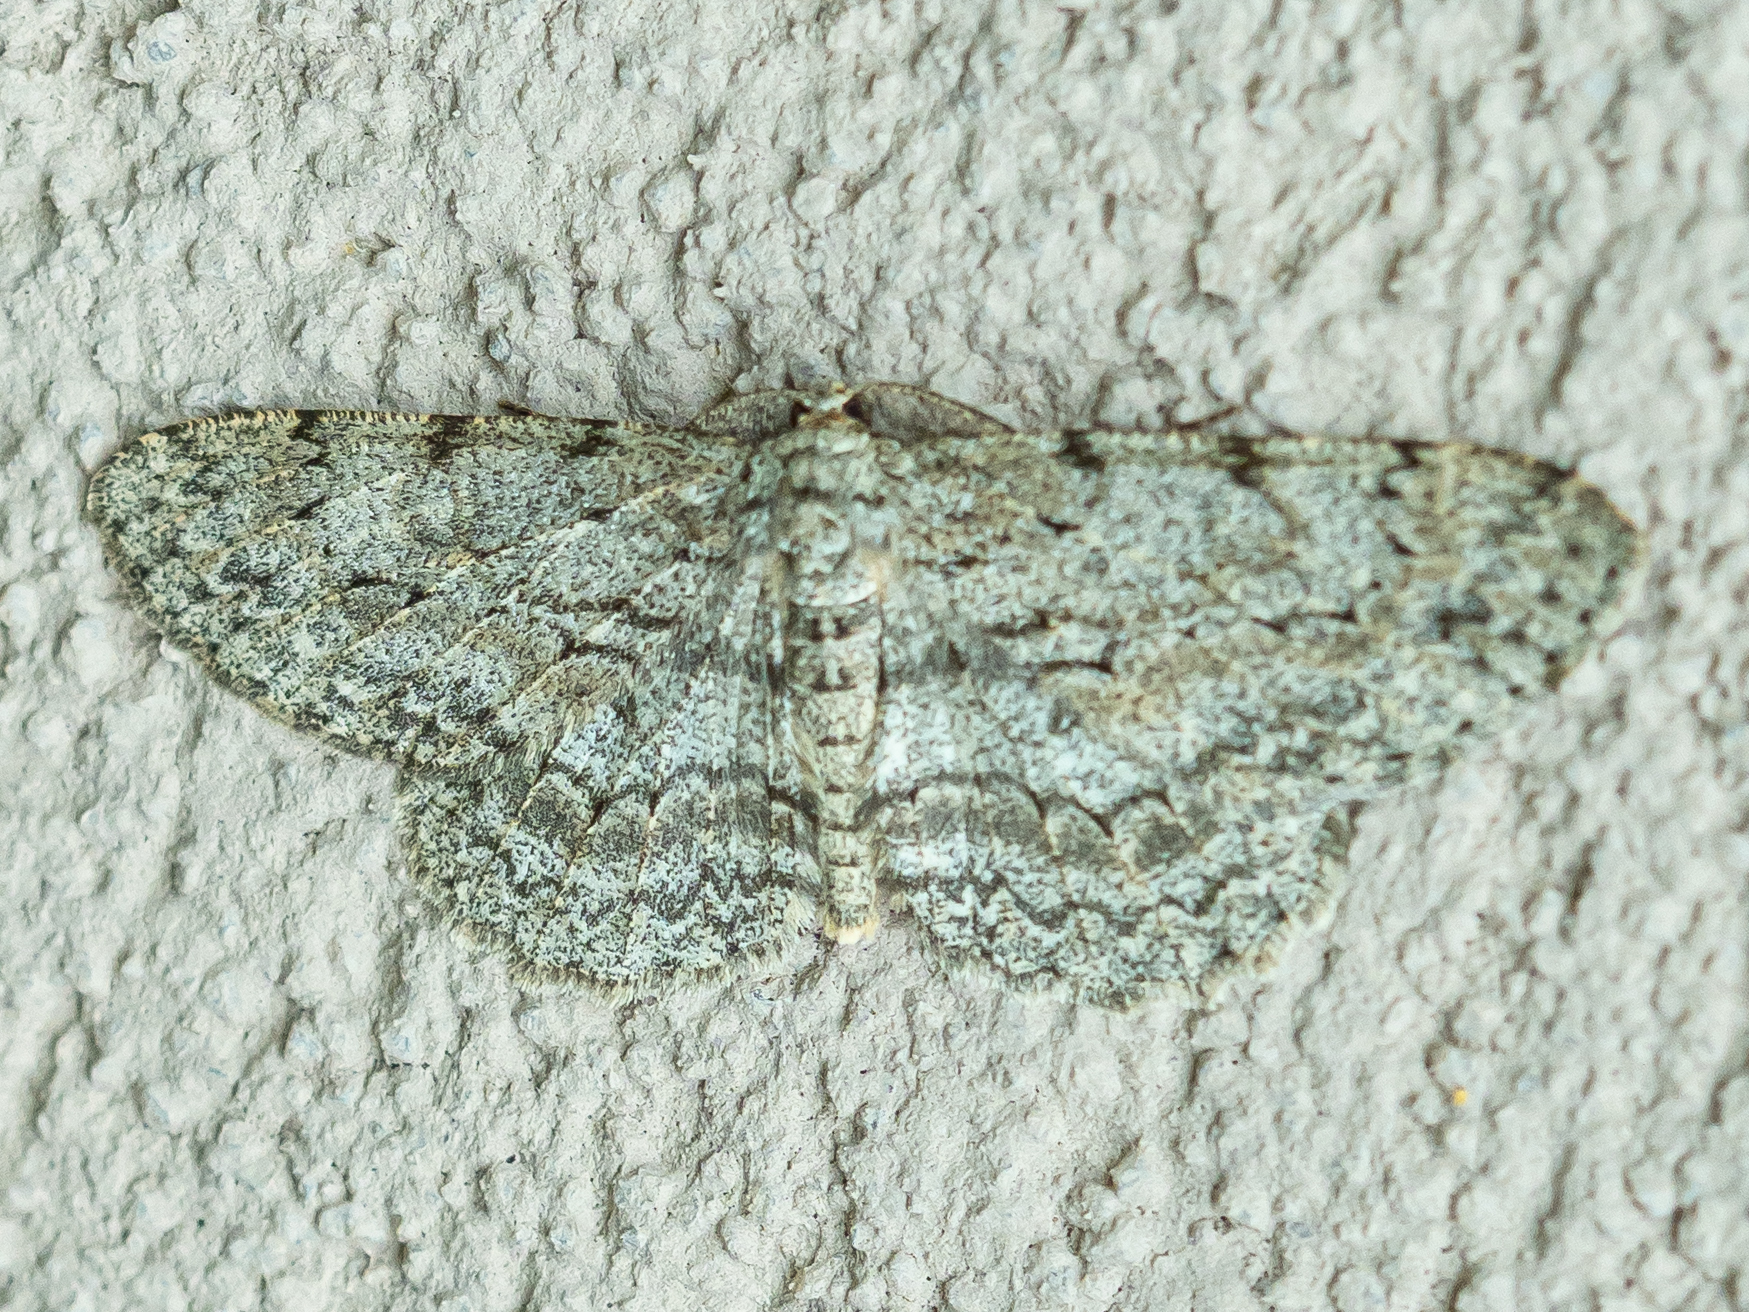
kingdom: Animalia
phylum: Arthropoda
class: Insecta
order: Lepidoptera
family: Geometridae
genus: Hypomecis
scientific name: Hypomecis punctinalis
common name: Pale oak beauty
